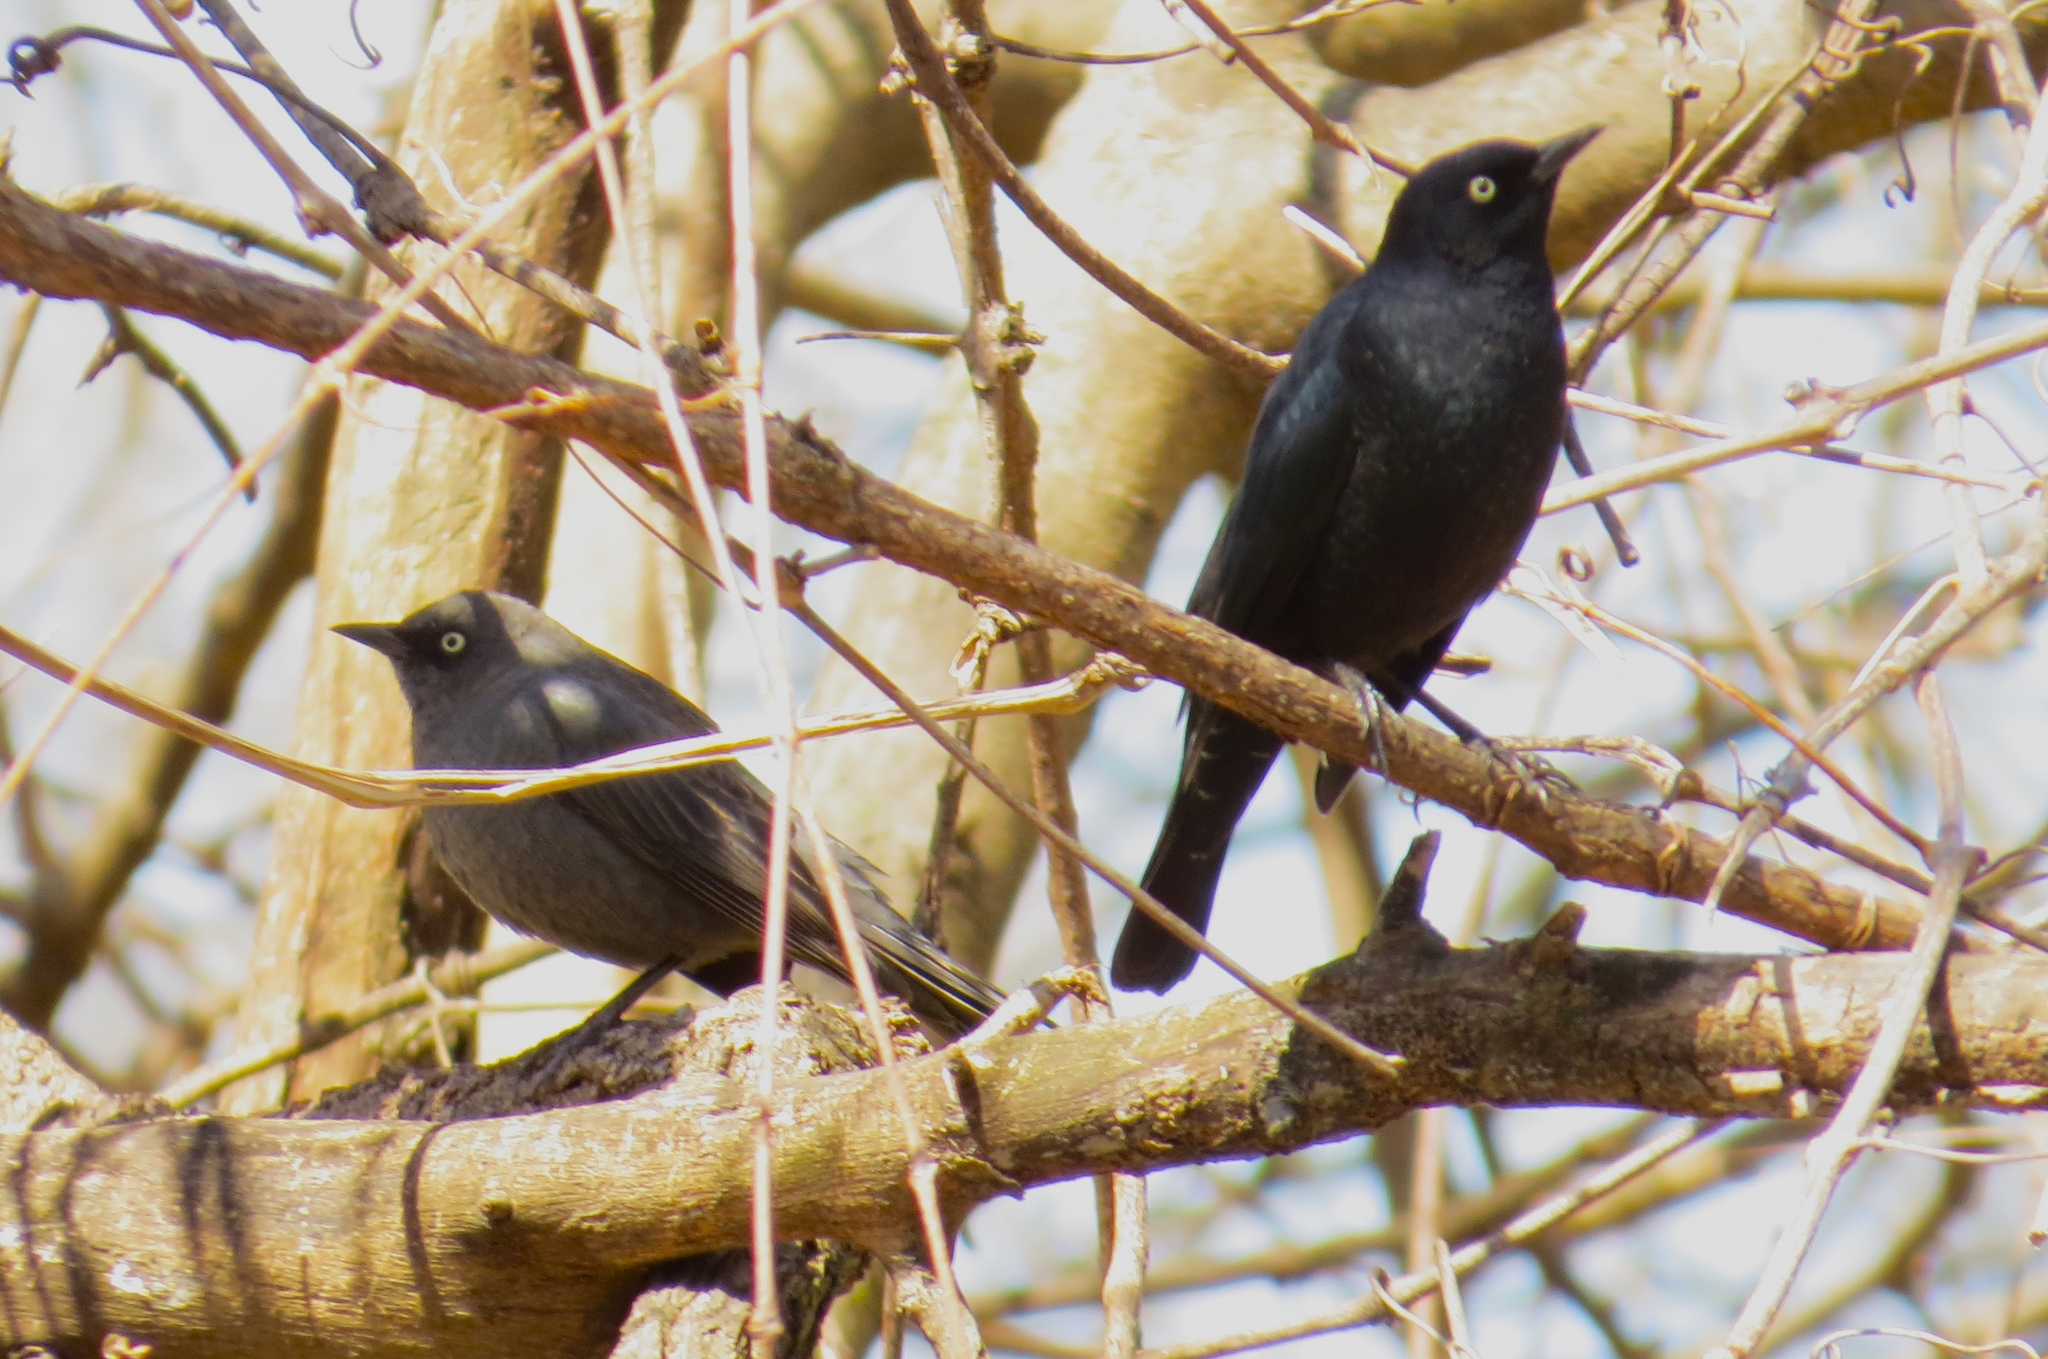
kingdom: Animalia
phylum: Chordata
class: Aves
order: Passeriformes
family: Icteridae
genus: Euphagus
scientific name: Euphagus carolinus
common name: Rusty blackbird
